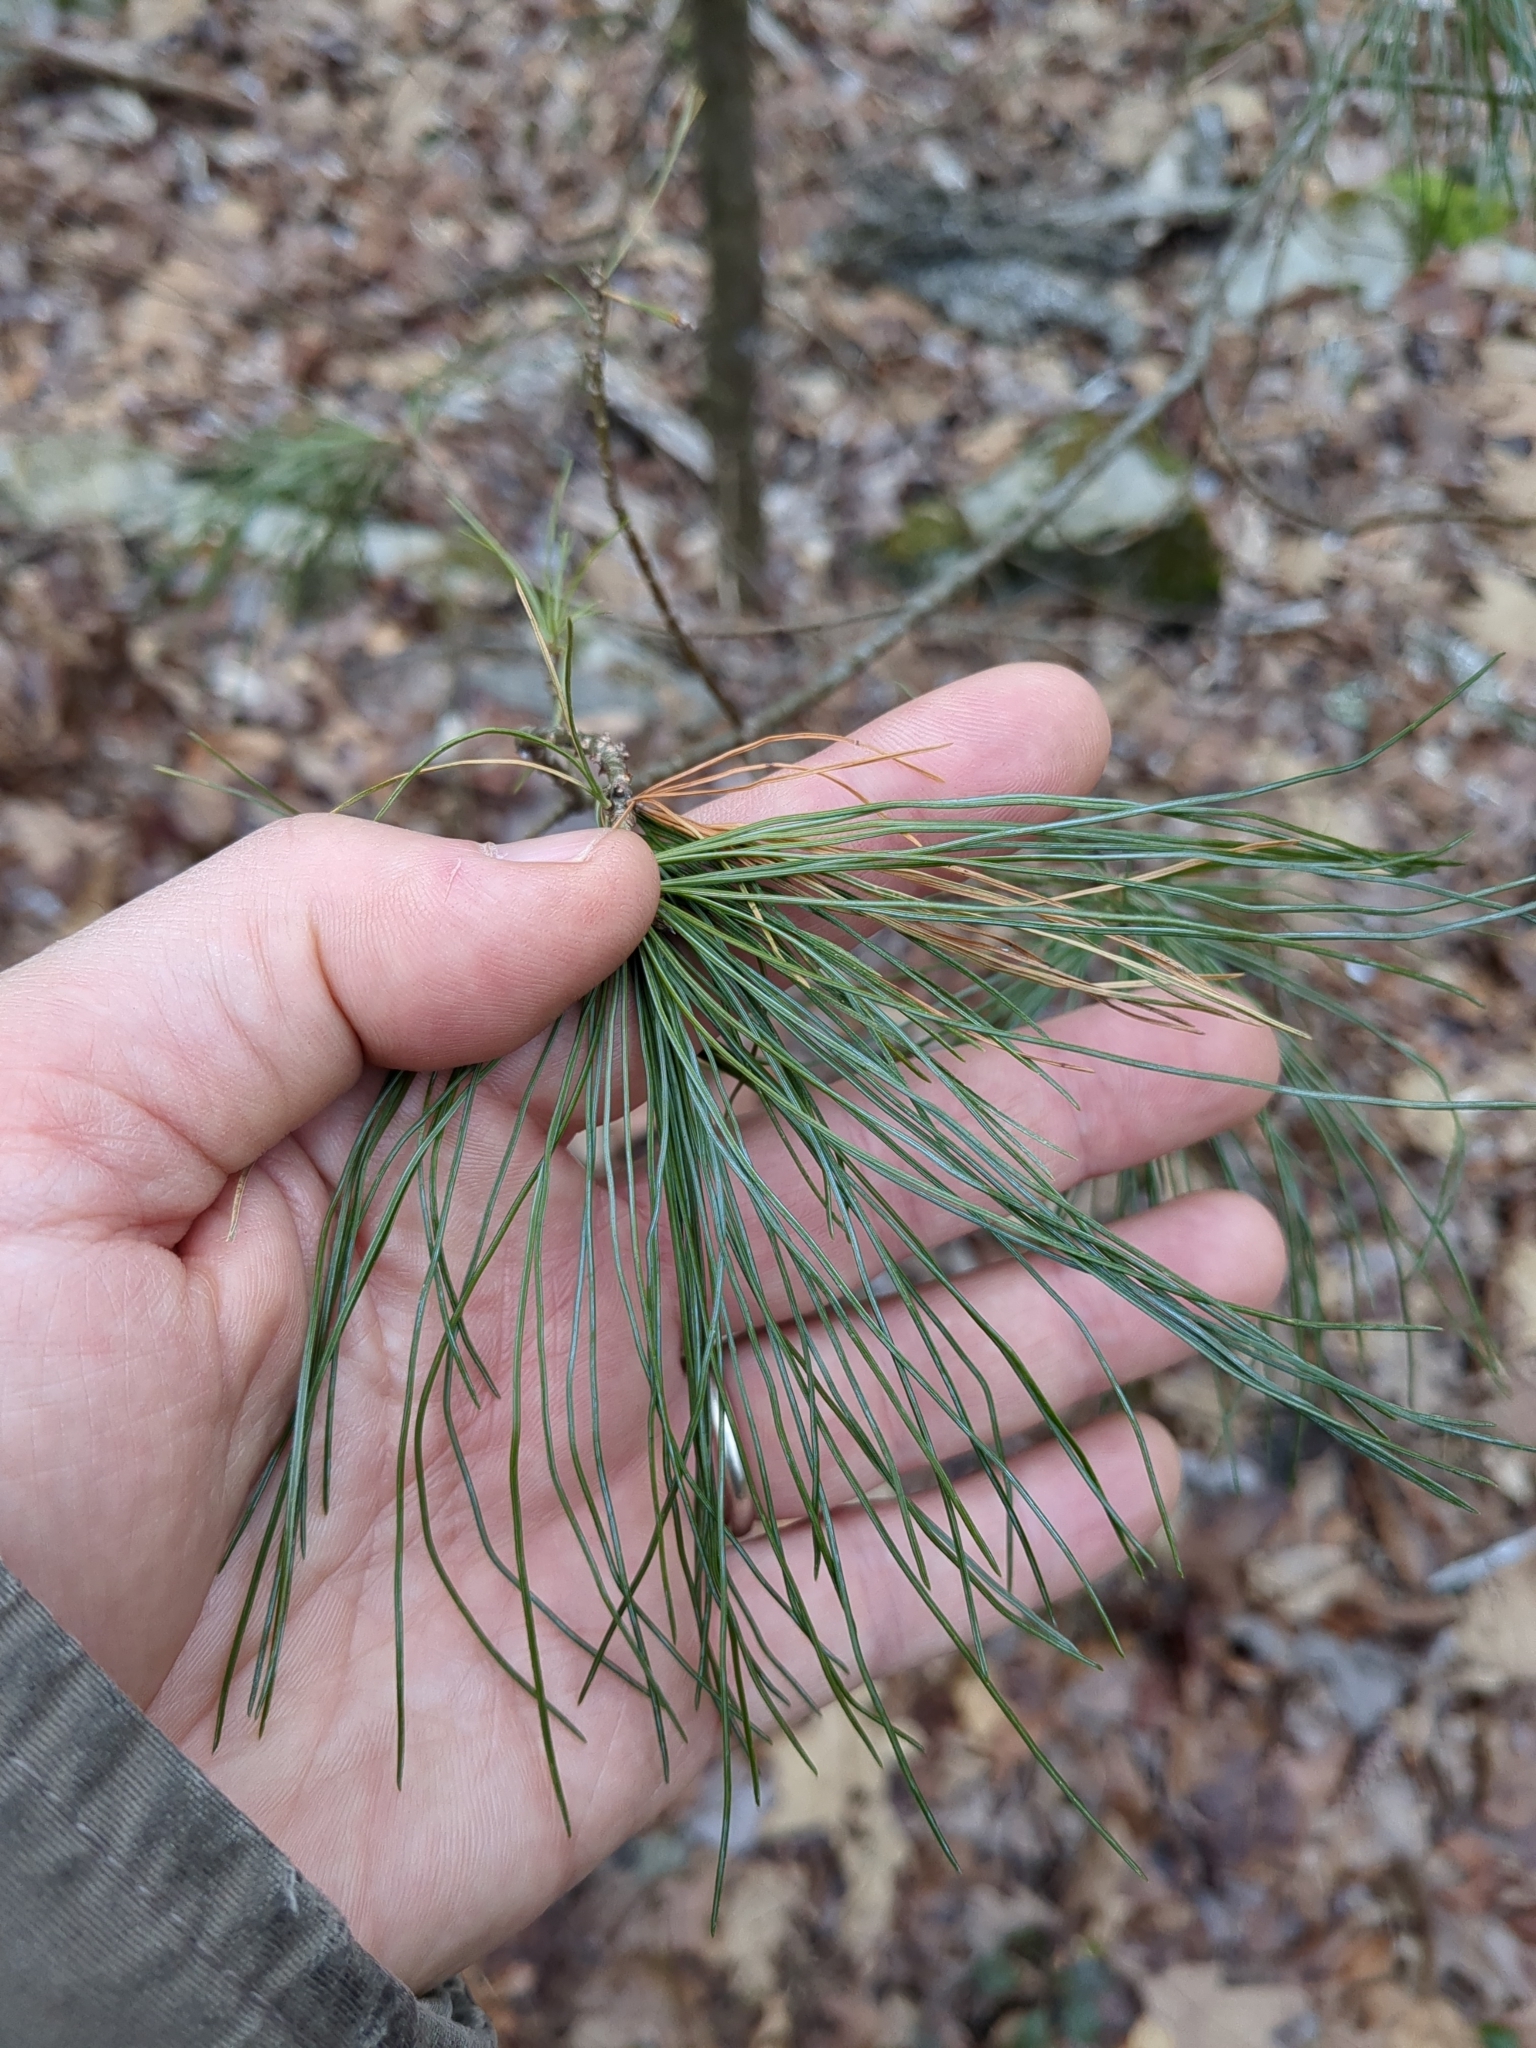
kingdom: Plantae
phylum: Tracheophyta
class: Pinopsida
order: Pinales
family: Pinaceae
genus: Pinus
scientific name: Pinus strobus
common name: Weymouth pine
